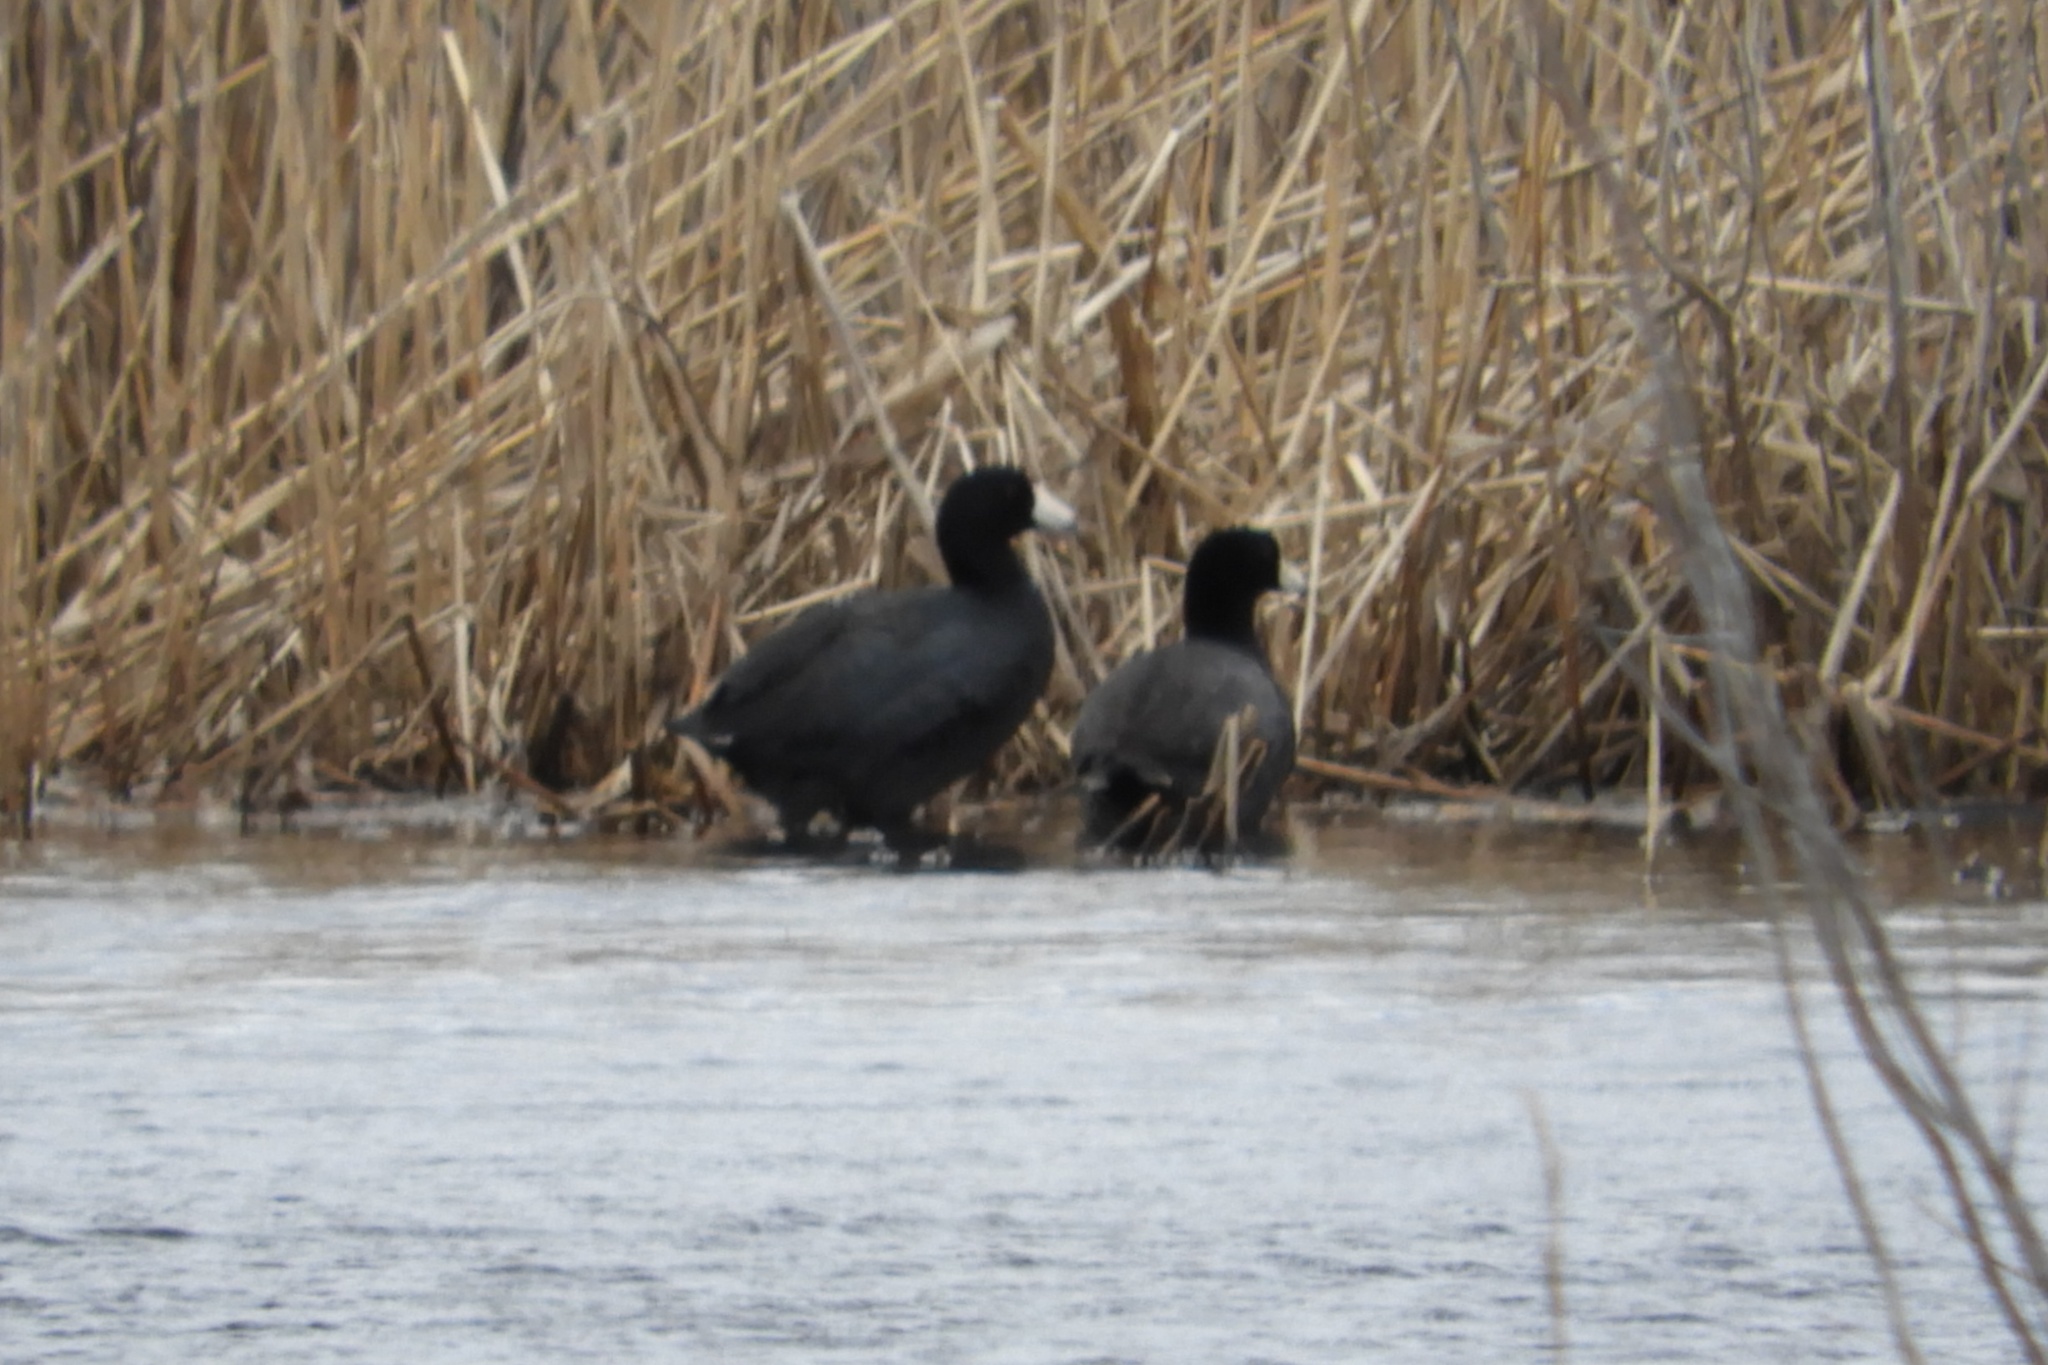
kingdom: Animalia
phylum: Chordata
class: Aves
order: Gruiformes
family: Rallidae
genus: Fulica
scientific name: Fulica americana
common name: American coot
